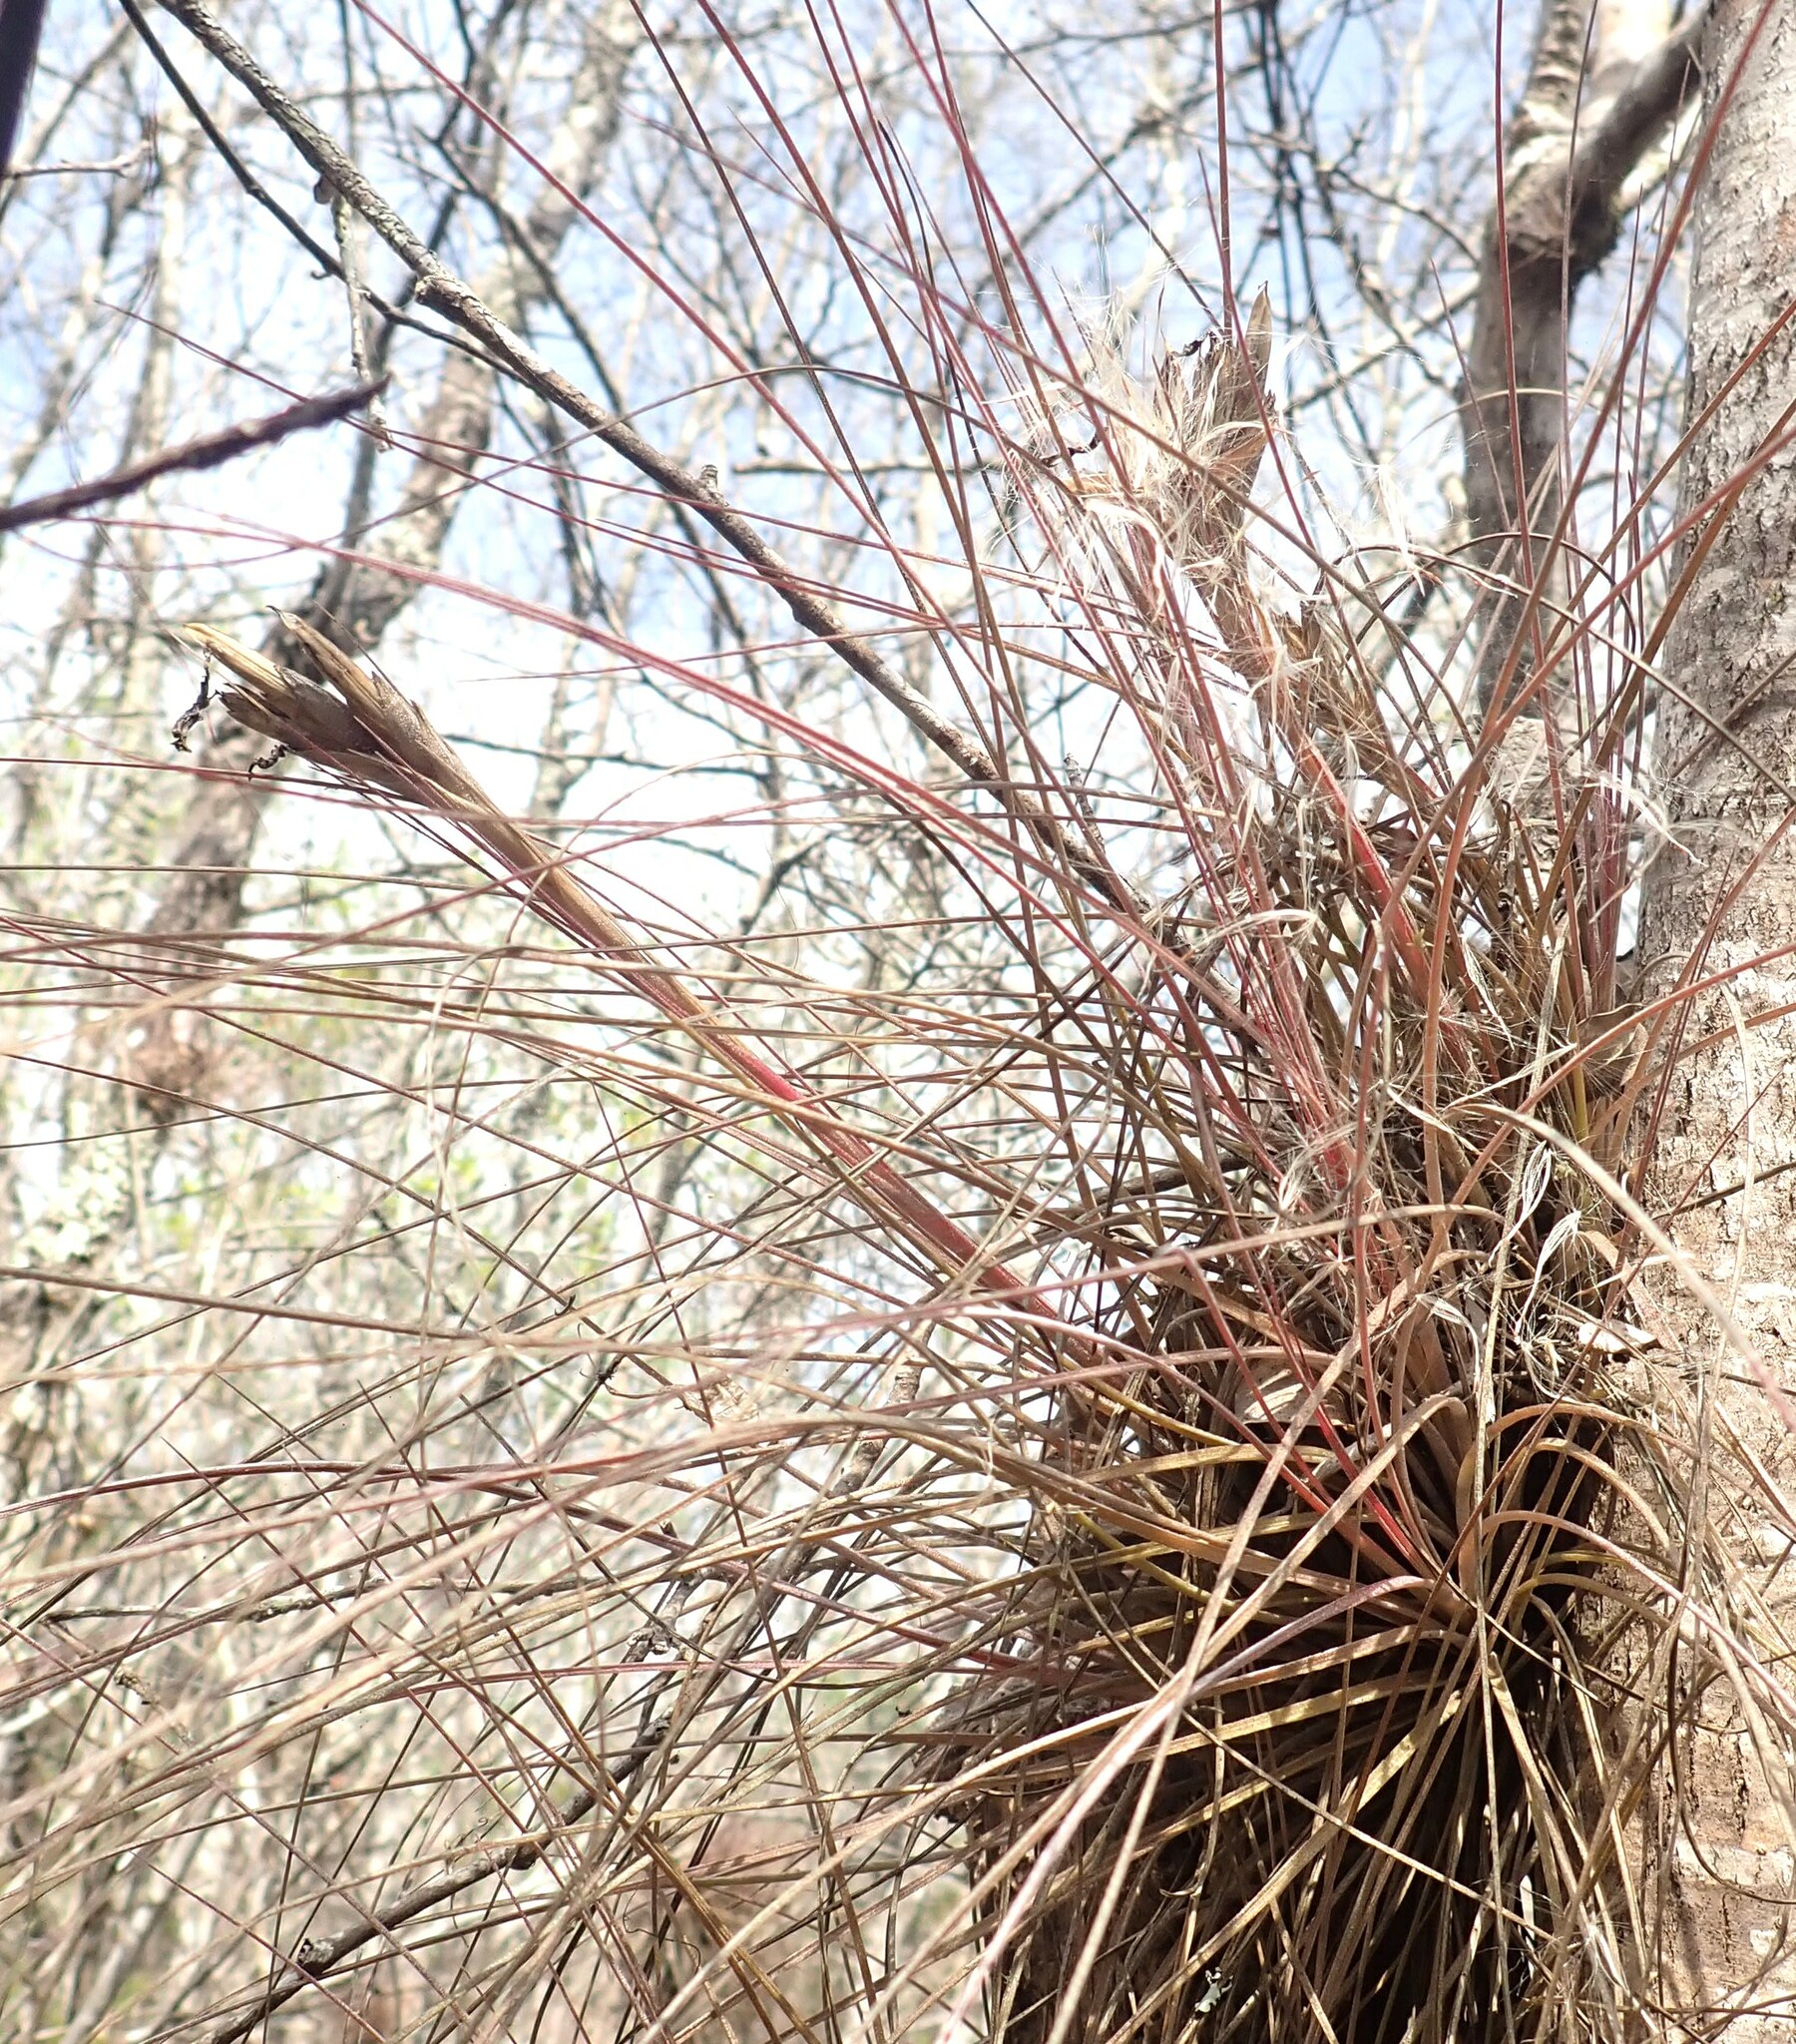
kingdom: Plantae
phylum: Tracheophyta
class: Liliopsida
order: Poales
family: Bromeliaceae
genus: Tillandsia
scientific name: Tillandsia bartramii
